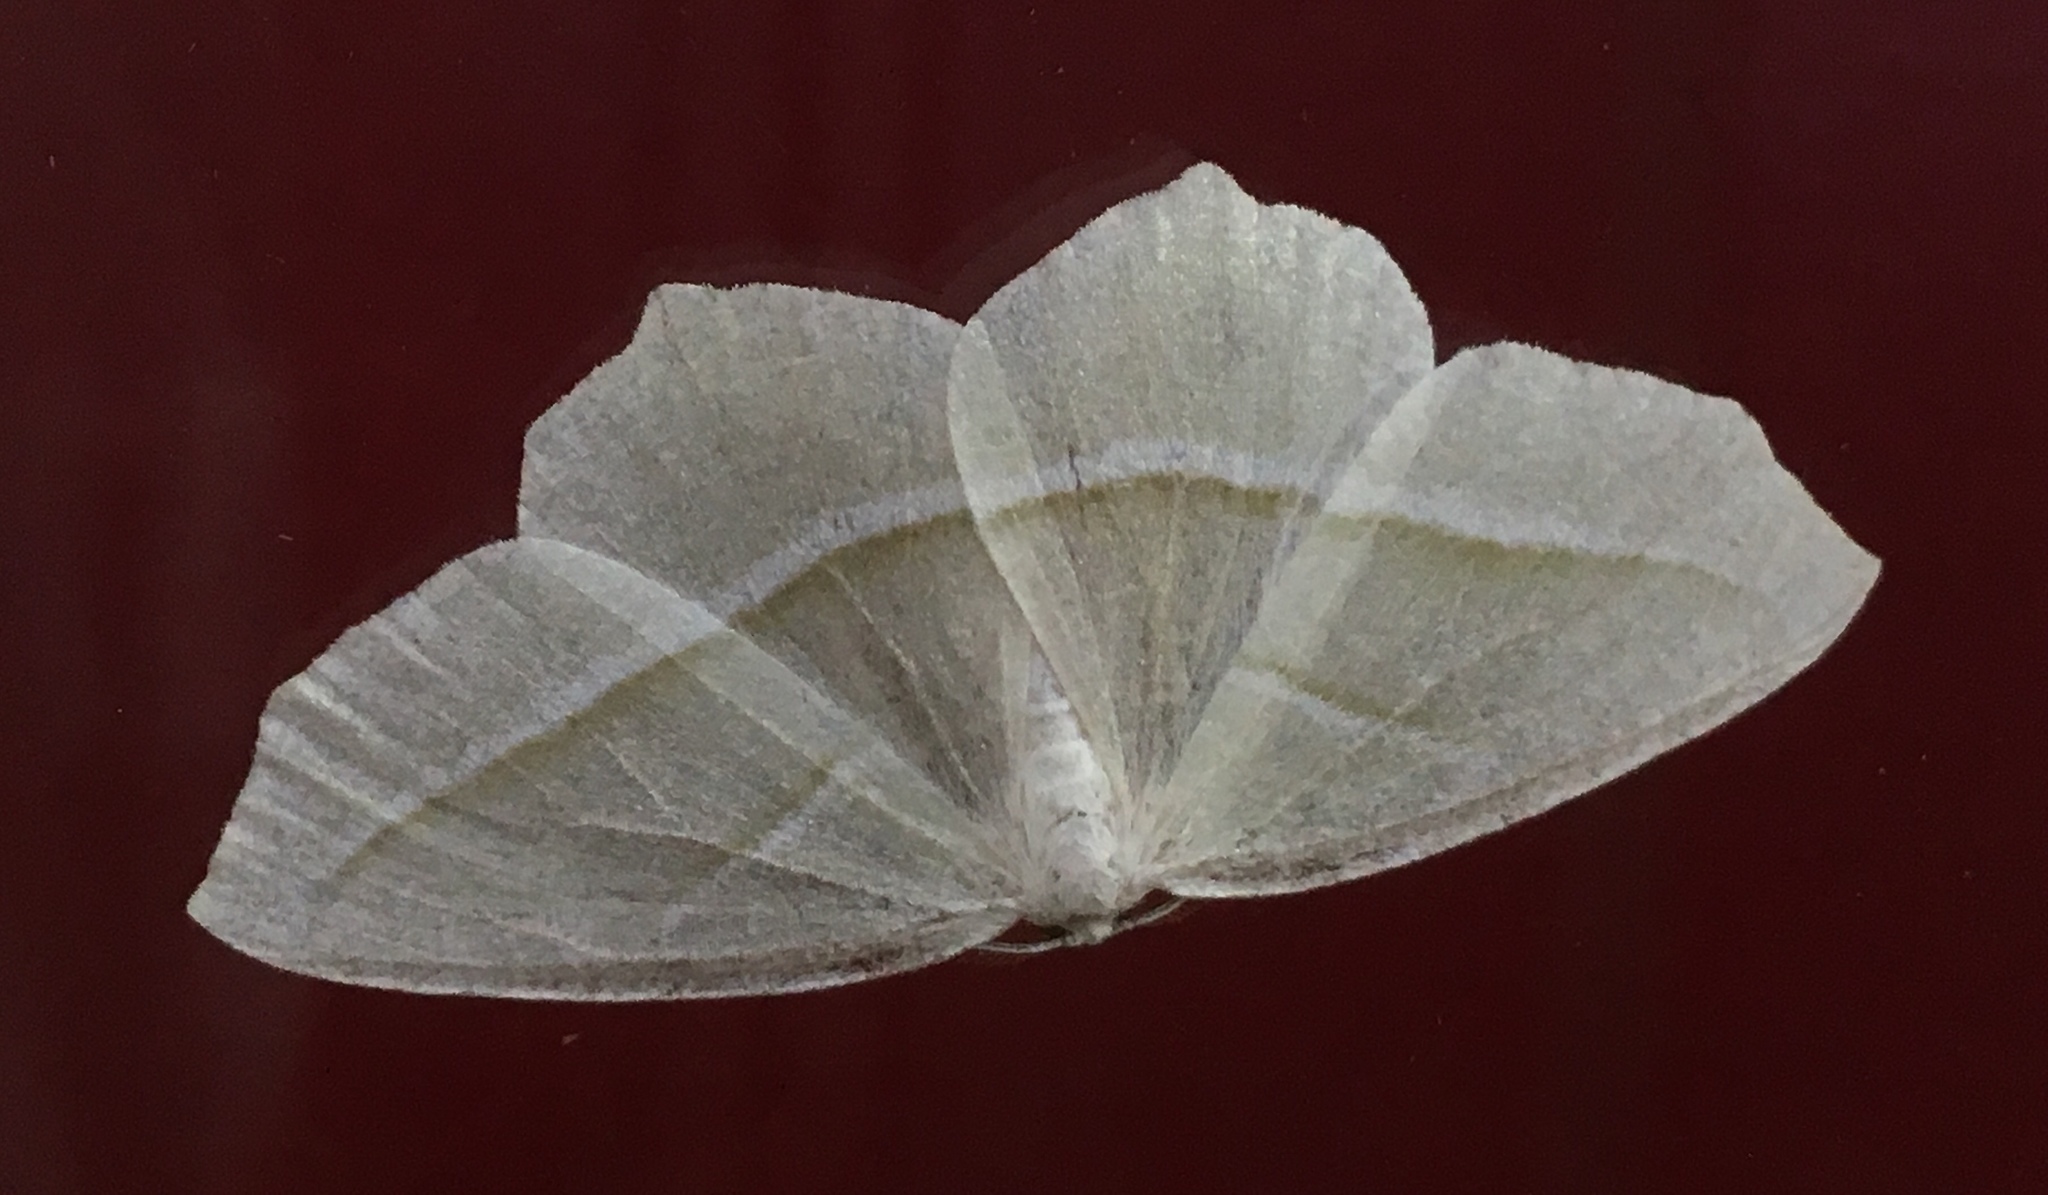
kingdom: Animalia
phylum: Arthropoda
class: Insecta
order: Lepidoptera
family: Geometridae
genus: Campaea
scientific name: Campaea perlata
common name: Fringed looper
